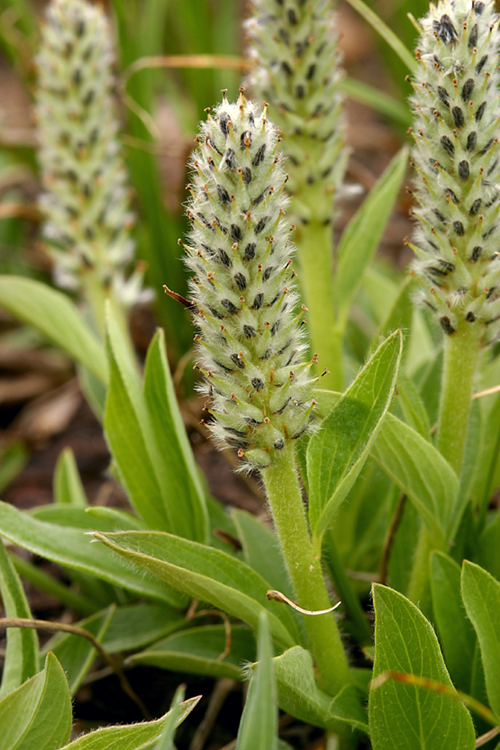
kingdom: Plantae
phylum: Tracheophyta
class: Magnoliopsida
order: Malpighiales
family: Salicaceae
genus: Salix
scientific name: Salix petrophila
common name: Rocky mountain willow
